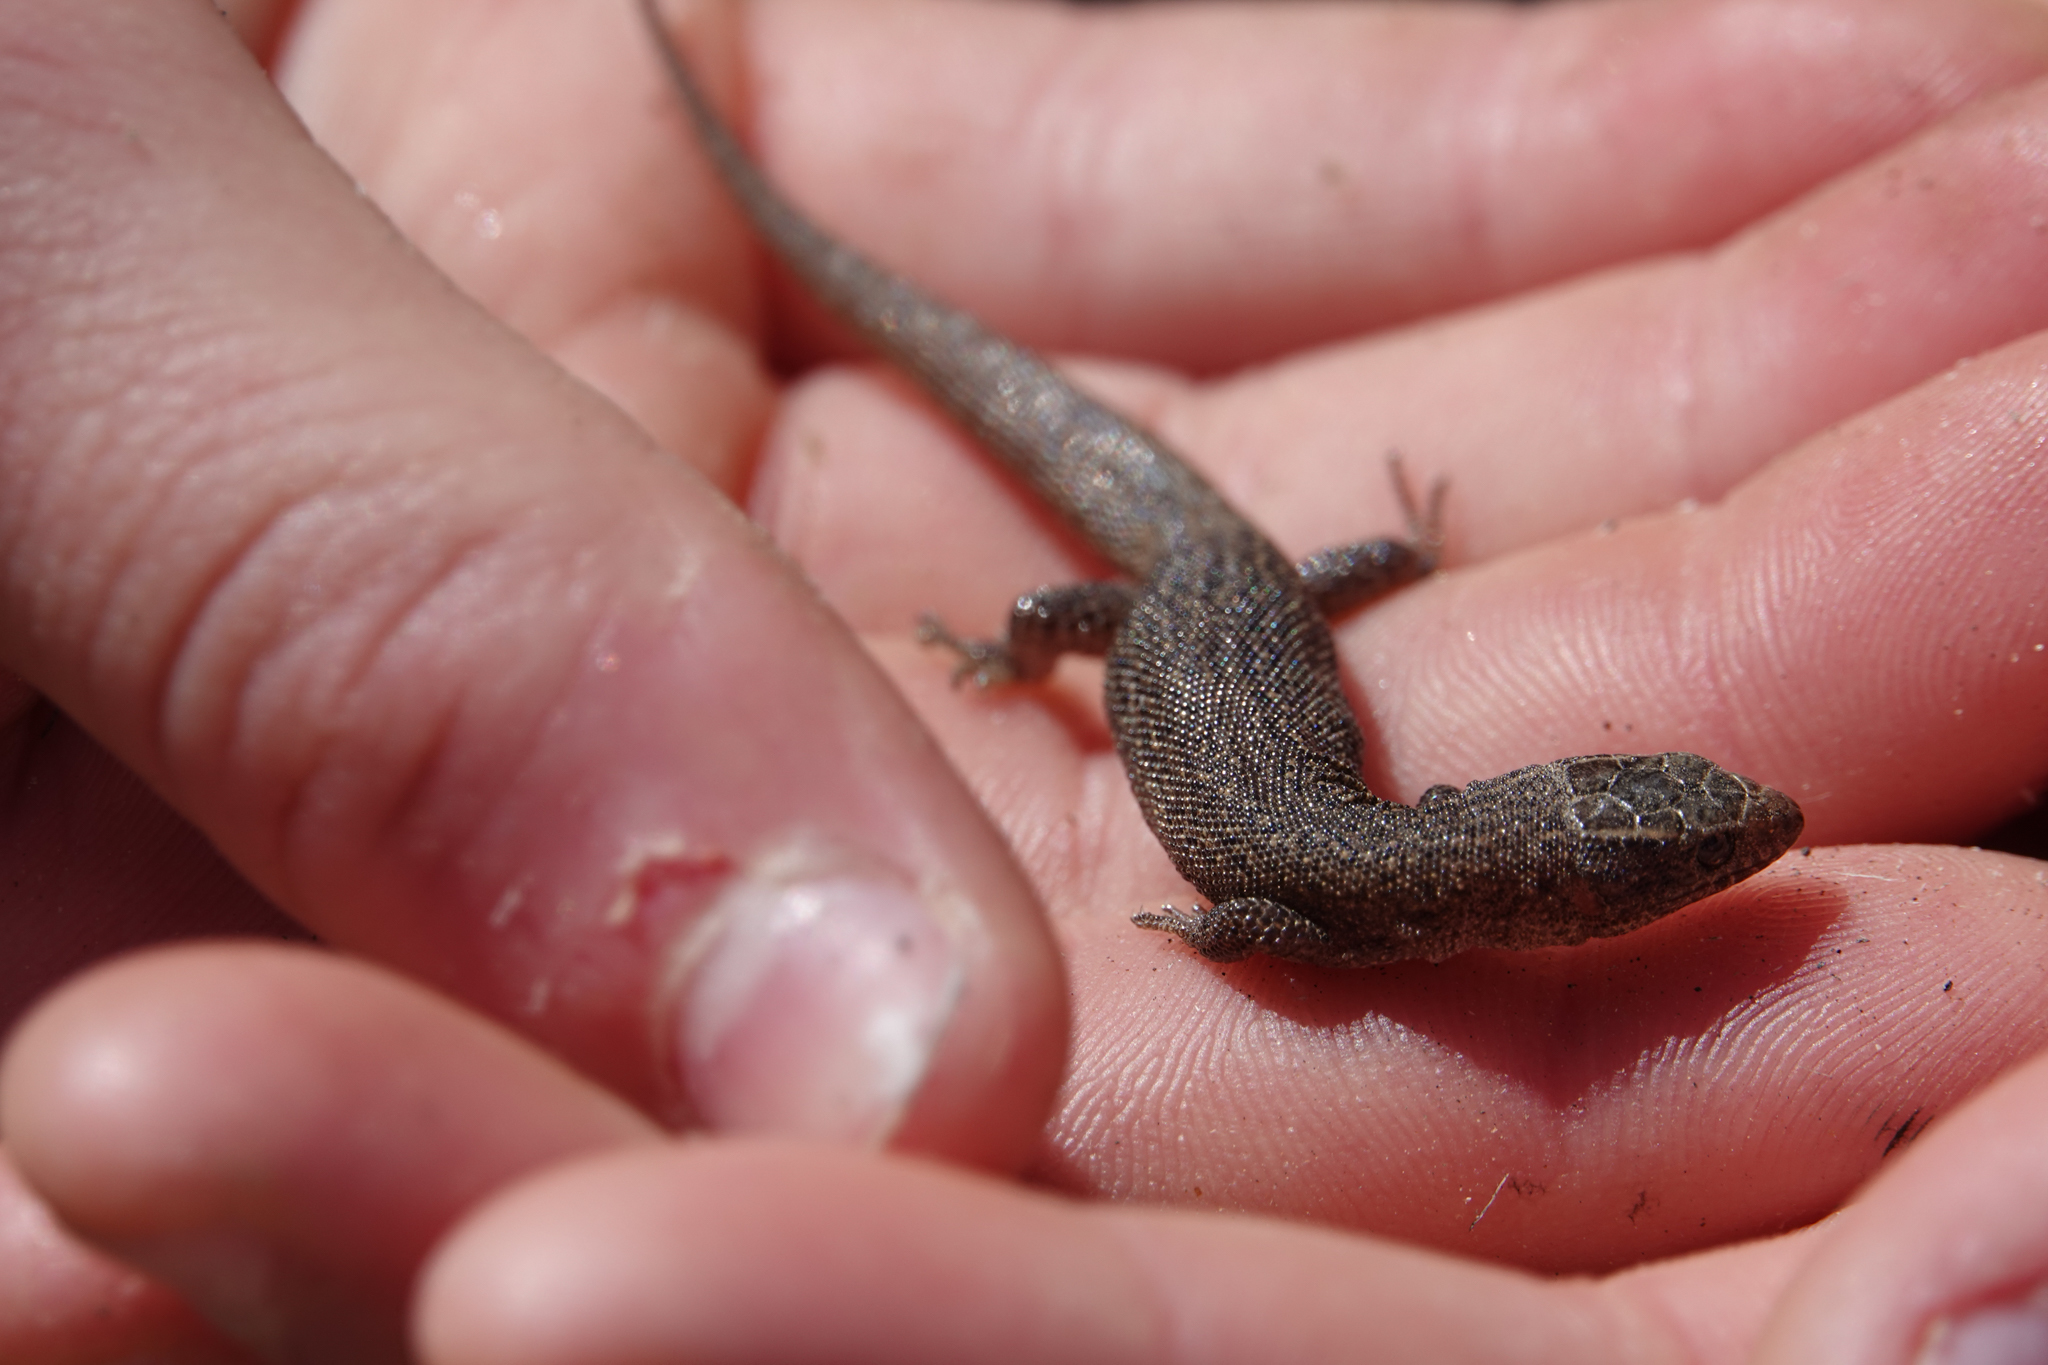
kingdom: Animalia
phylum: Chordata
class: Squamata
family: Xantusiidae
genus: Xantusia
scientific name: Xantusia vigilis
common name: Desert night lizard
